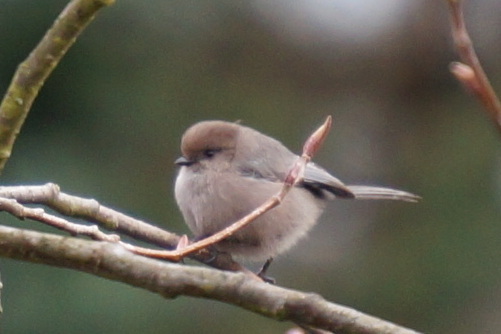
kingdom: Animalia
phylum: Chordata
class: Aves
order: Passeriformes
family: Aegithalidae
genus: Psaltriparus
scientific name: Psaltriparus minimus
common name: American bushtit
